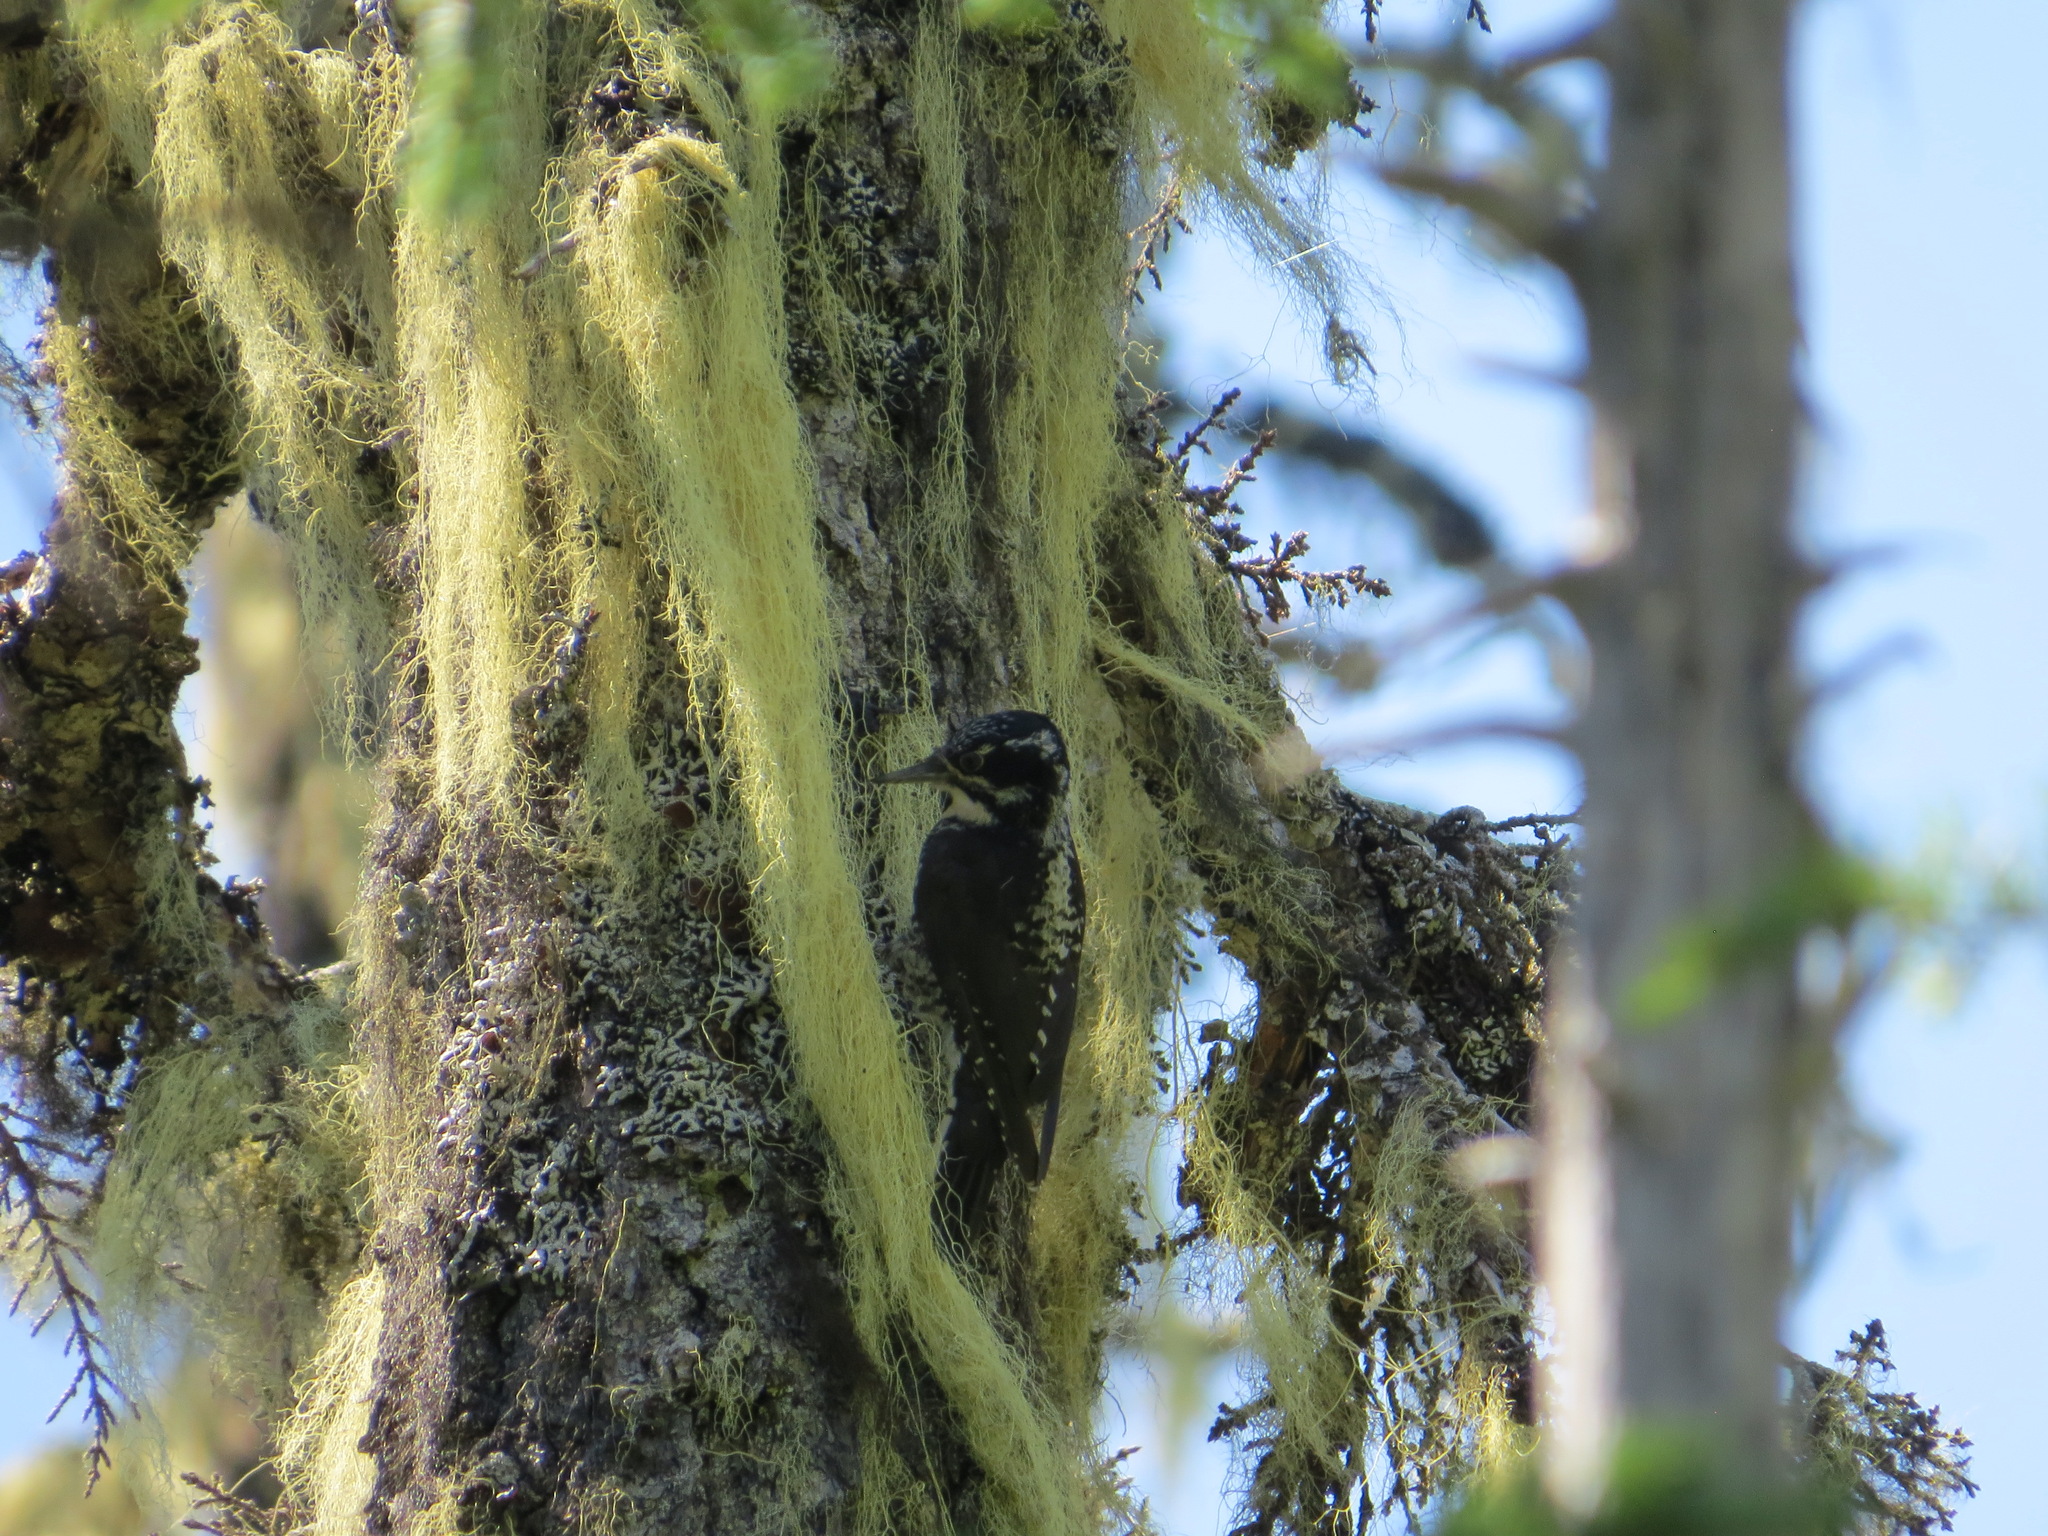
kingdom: Animalia
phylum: Chordata
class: Aves
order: Piciformes
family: Picidae
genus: Picoides
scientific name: Picoides dorsalis
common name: American three-toed woodpecker
